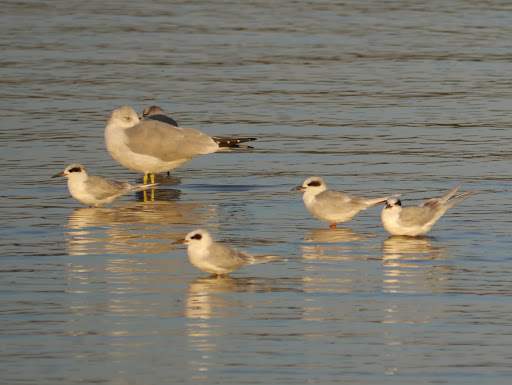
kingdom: Animalia
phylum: Chordata
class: Aves
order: Charadriiformes
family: Laridae
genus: Sterna
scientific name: Sterna forsteri
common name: Forster's tern
